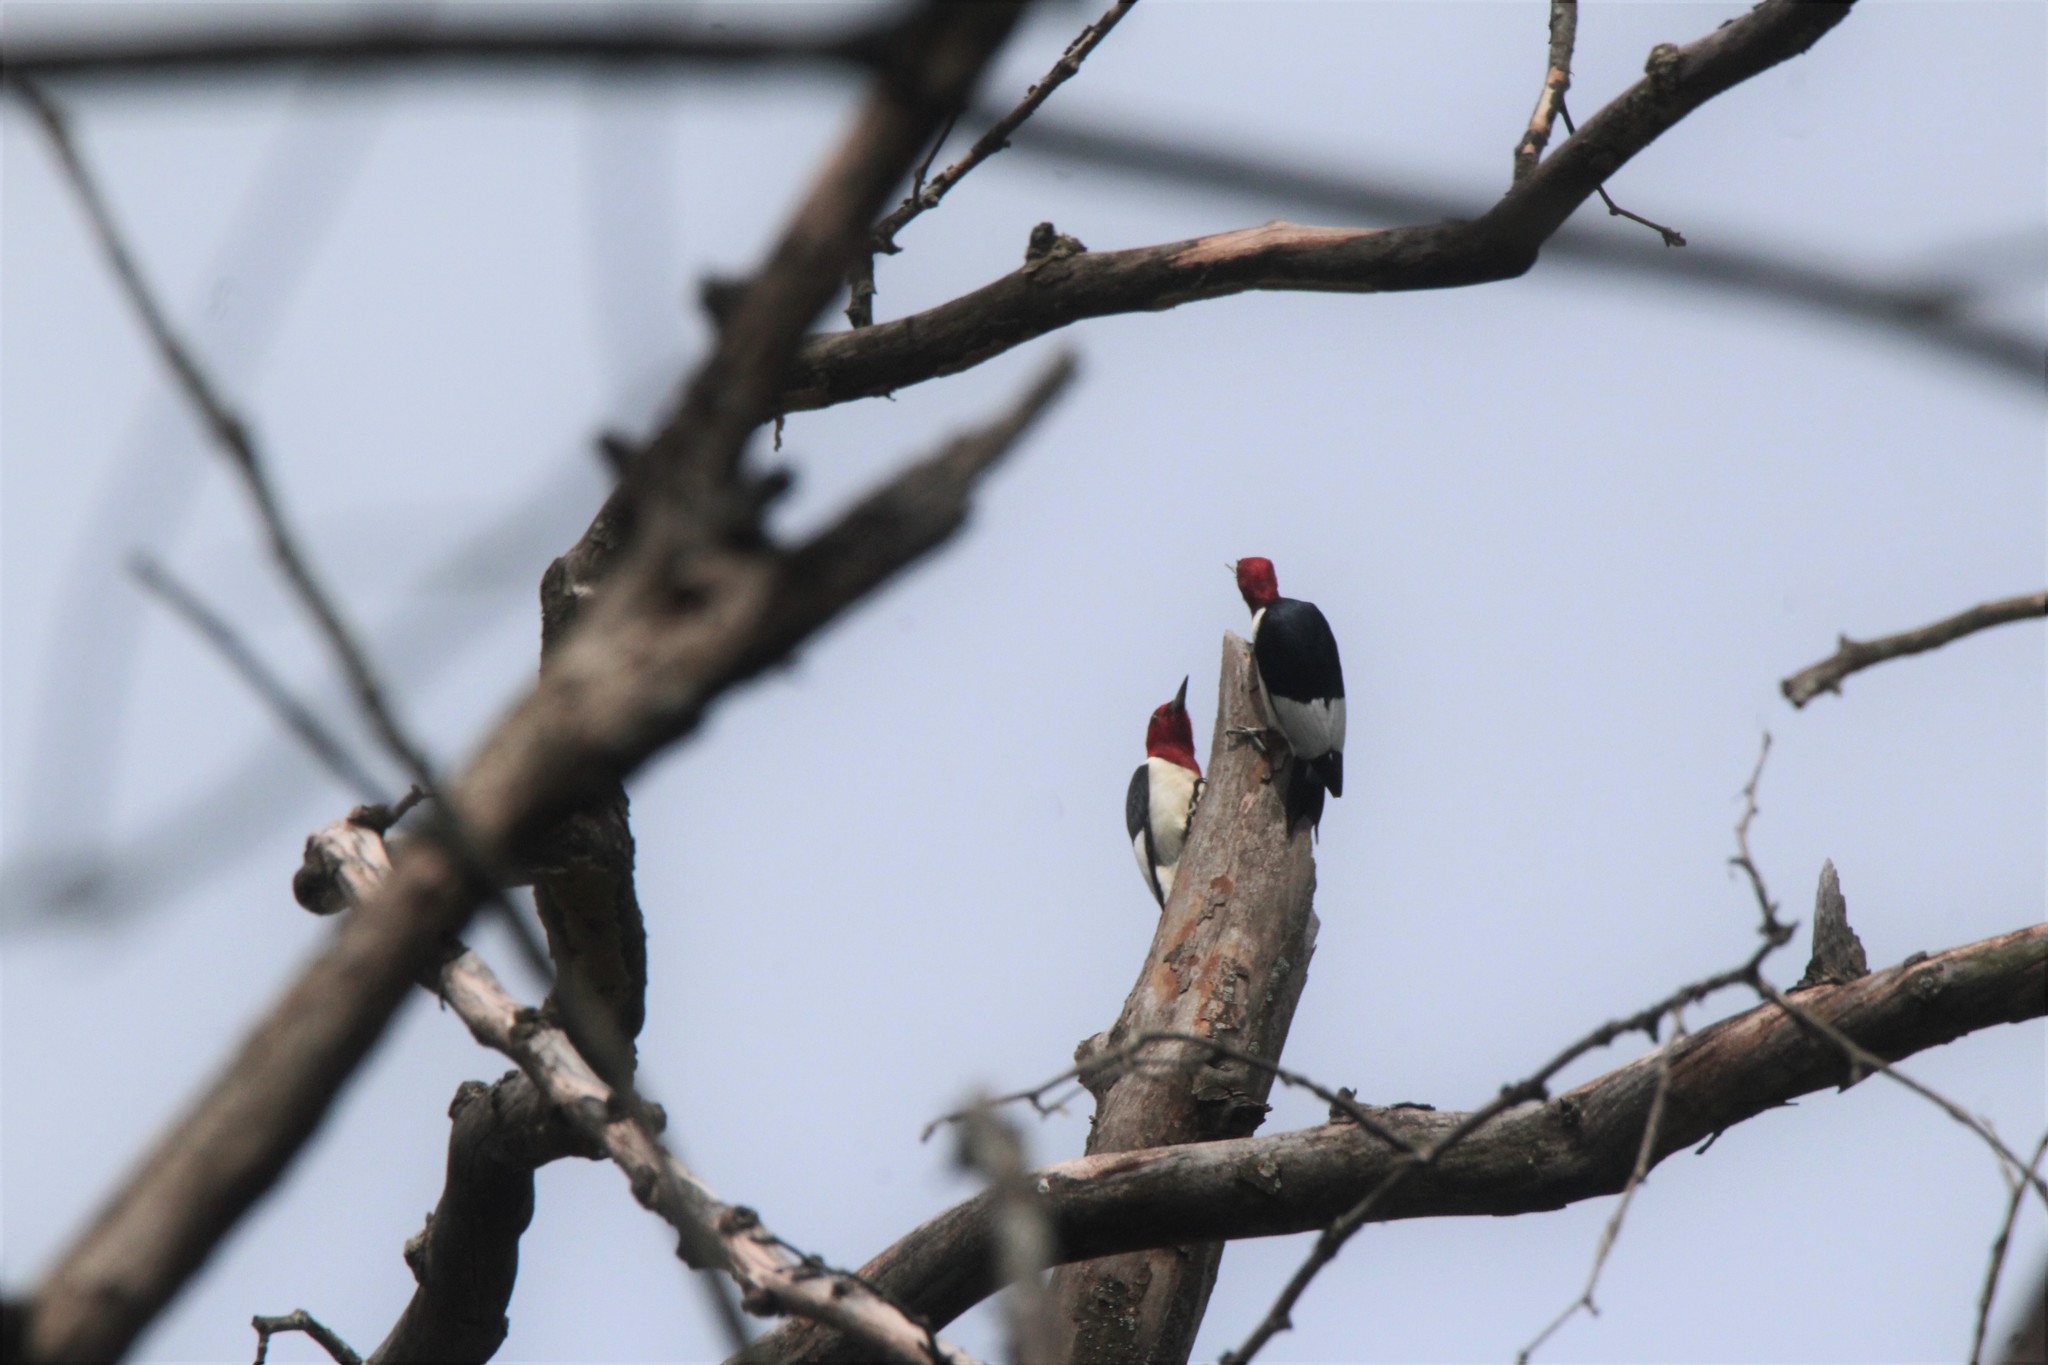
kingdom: Animalia
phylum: Chordata
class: Aves
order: Piciformes
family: Picidae
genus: Melanerpes
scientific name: Melanerpes erythrocephalus
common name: Red-headed woodpecker
